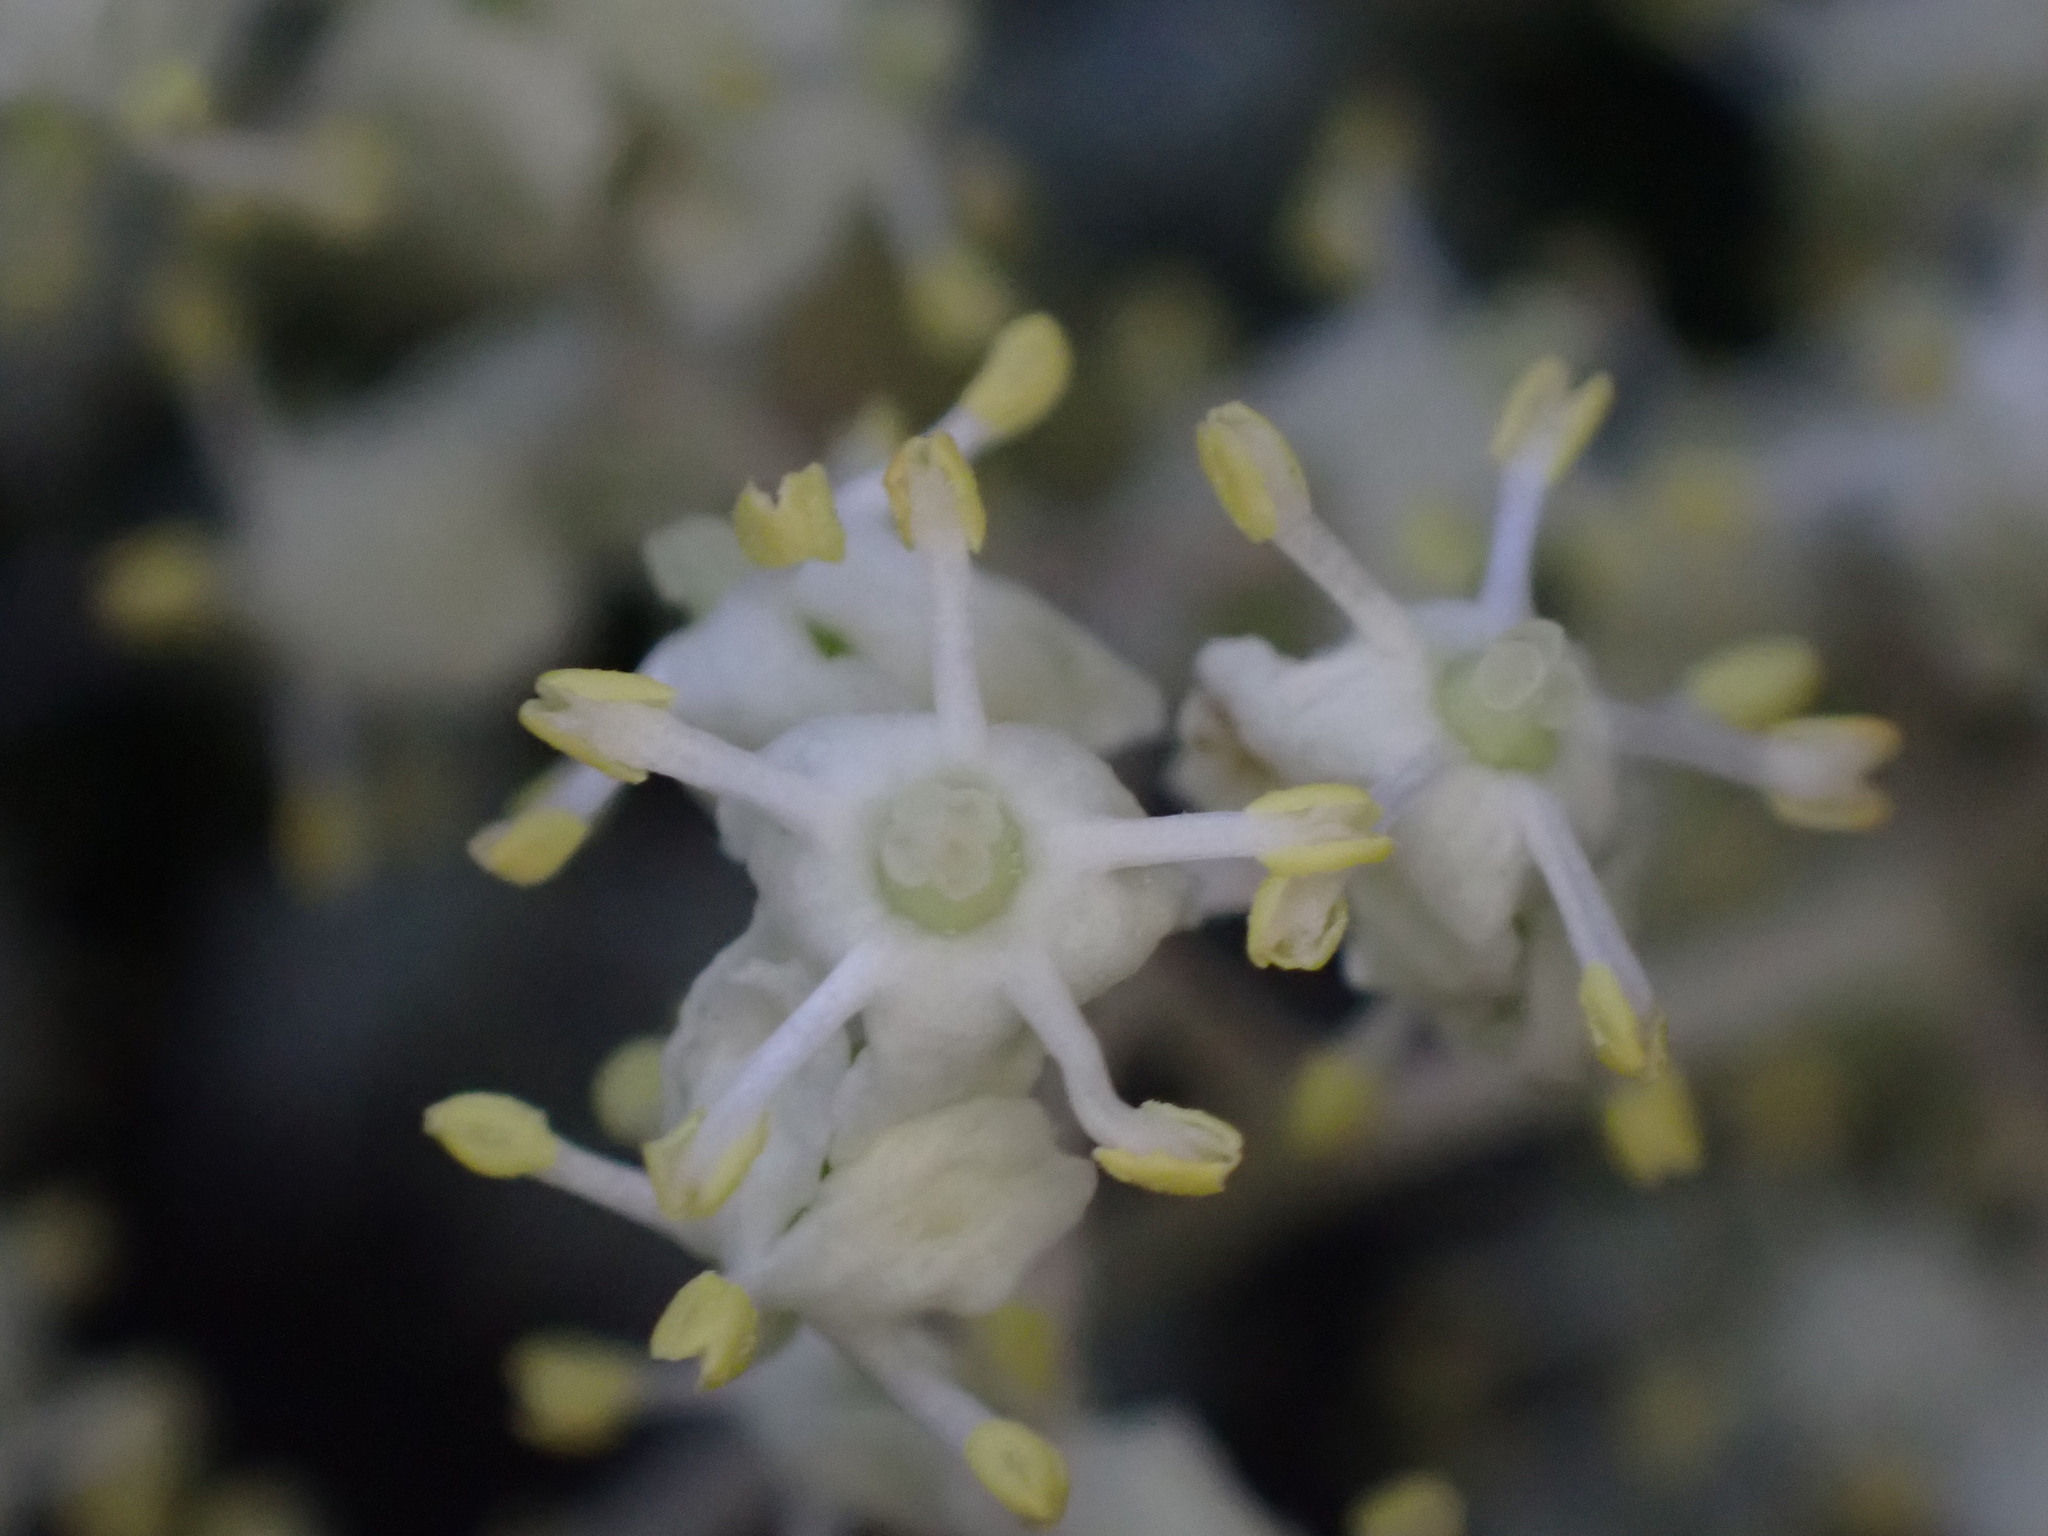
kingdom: Plantae
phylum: Tracheophyta
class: Magnoliopsida
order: Dipsacales
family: Viburnaceae
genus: Sambucus
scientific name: Sambucus racemosa
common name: Red-berried elder
